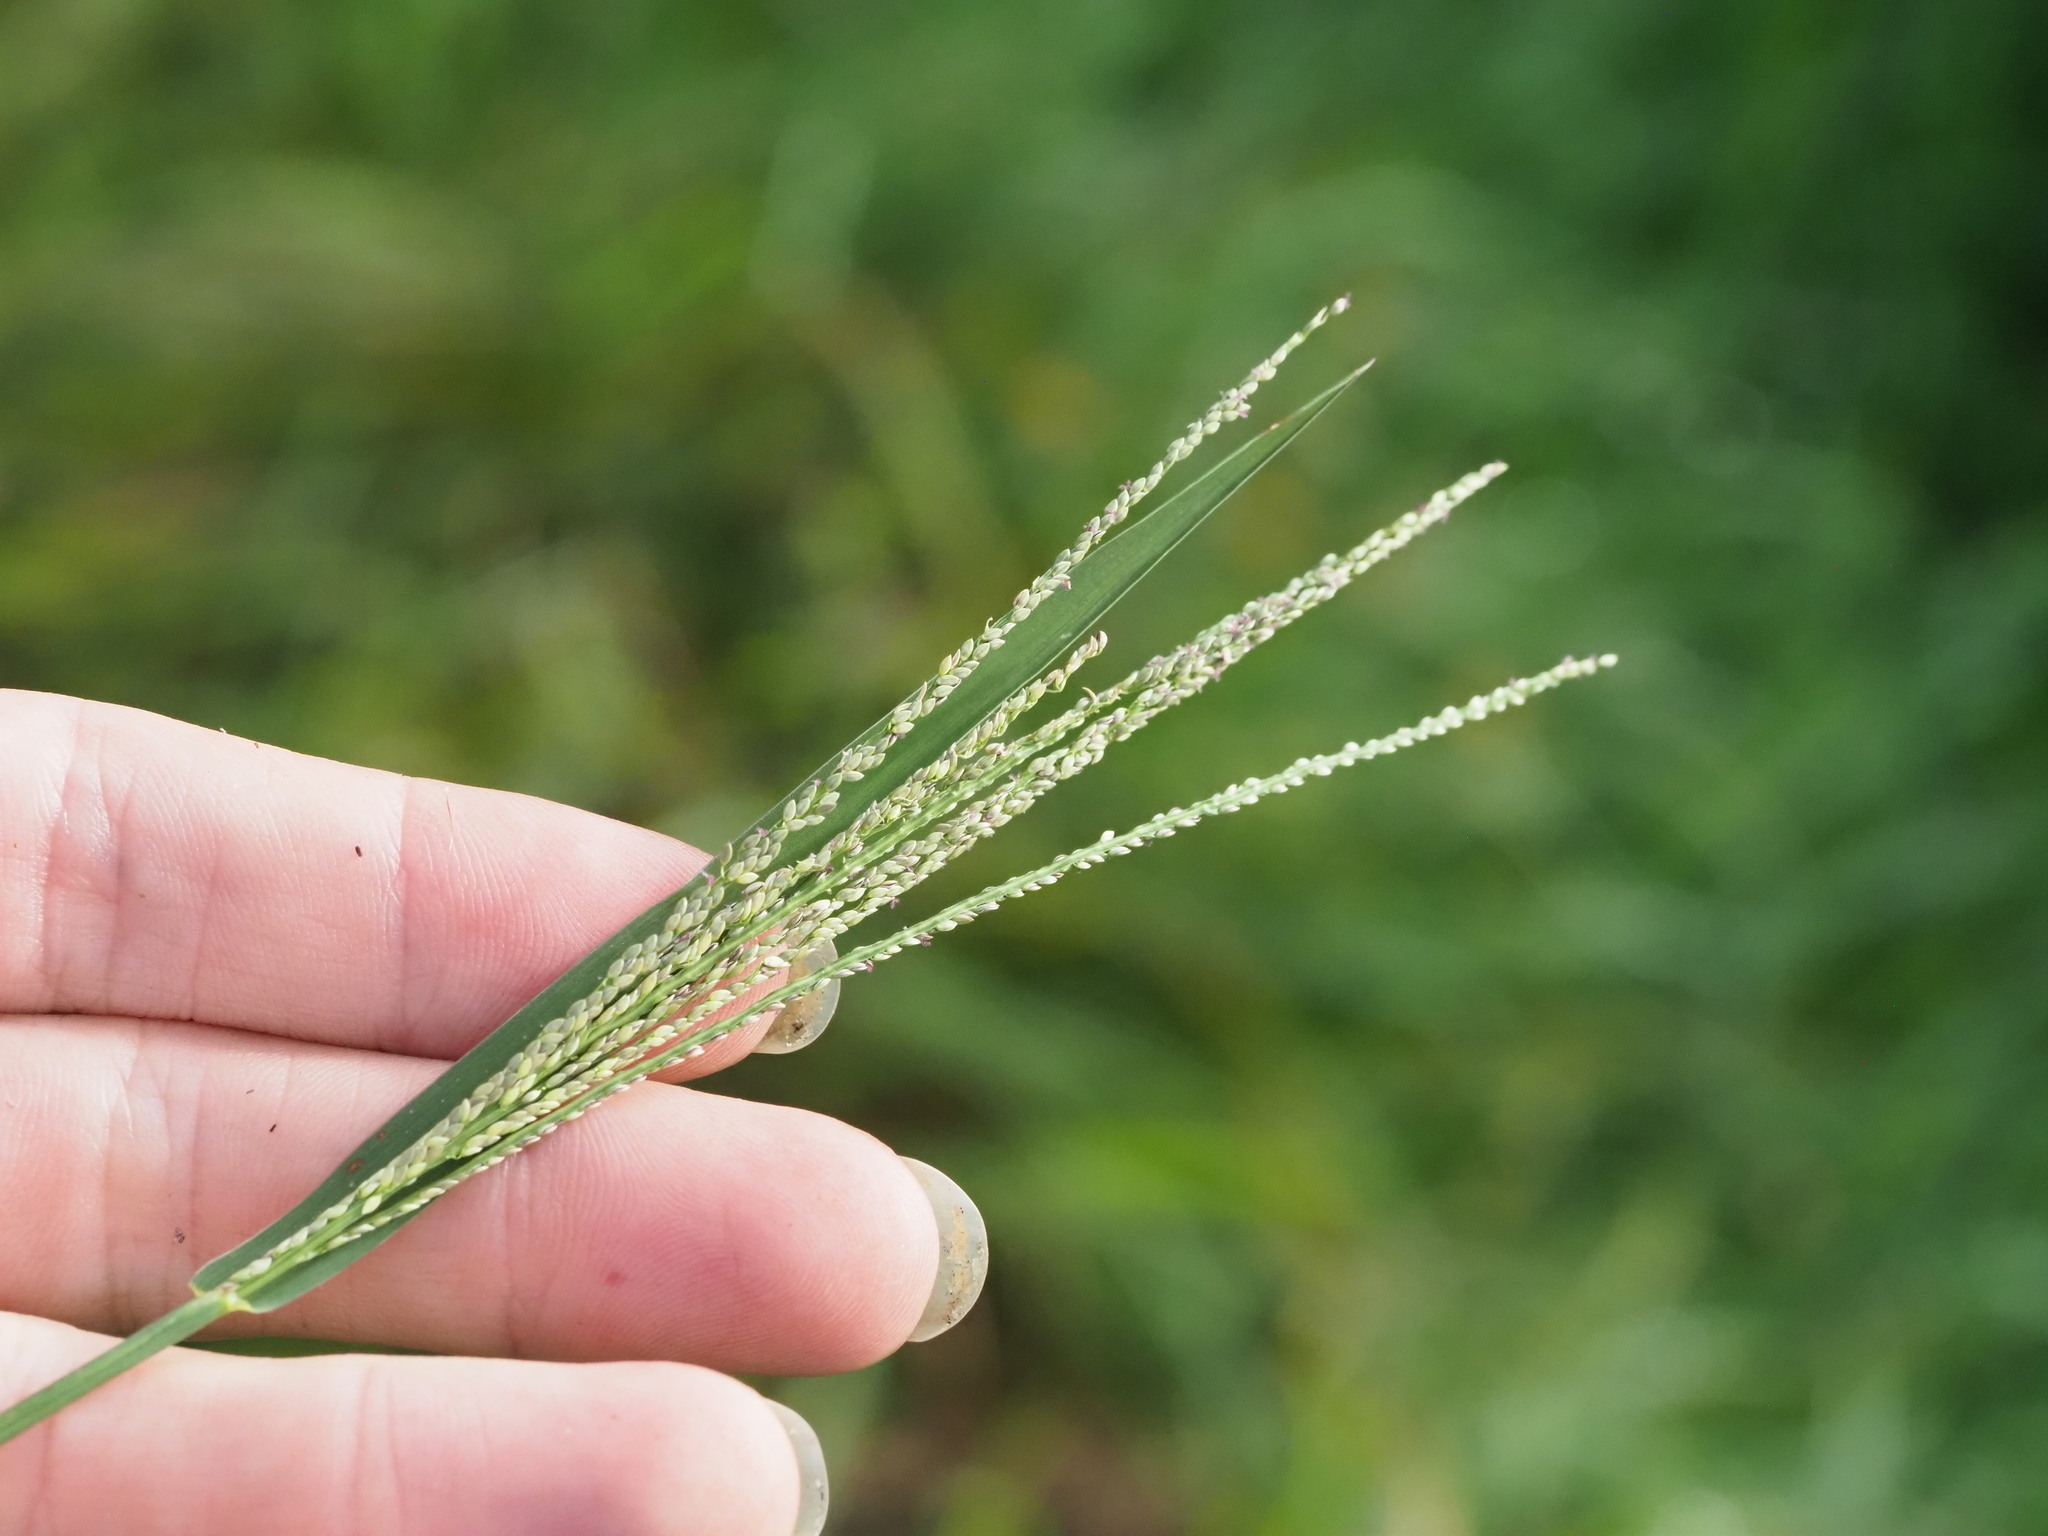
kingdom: Plantae
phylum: Tracheophyta
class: Liliopsida
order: Poales
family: Poaceae
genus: Digitaria
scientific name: Digitaria violascens
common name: Violet crabgrass
